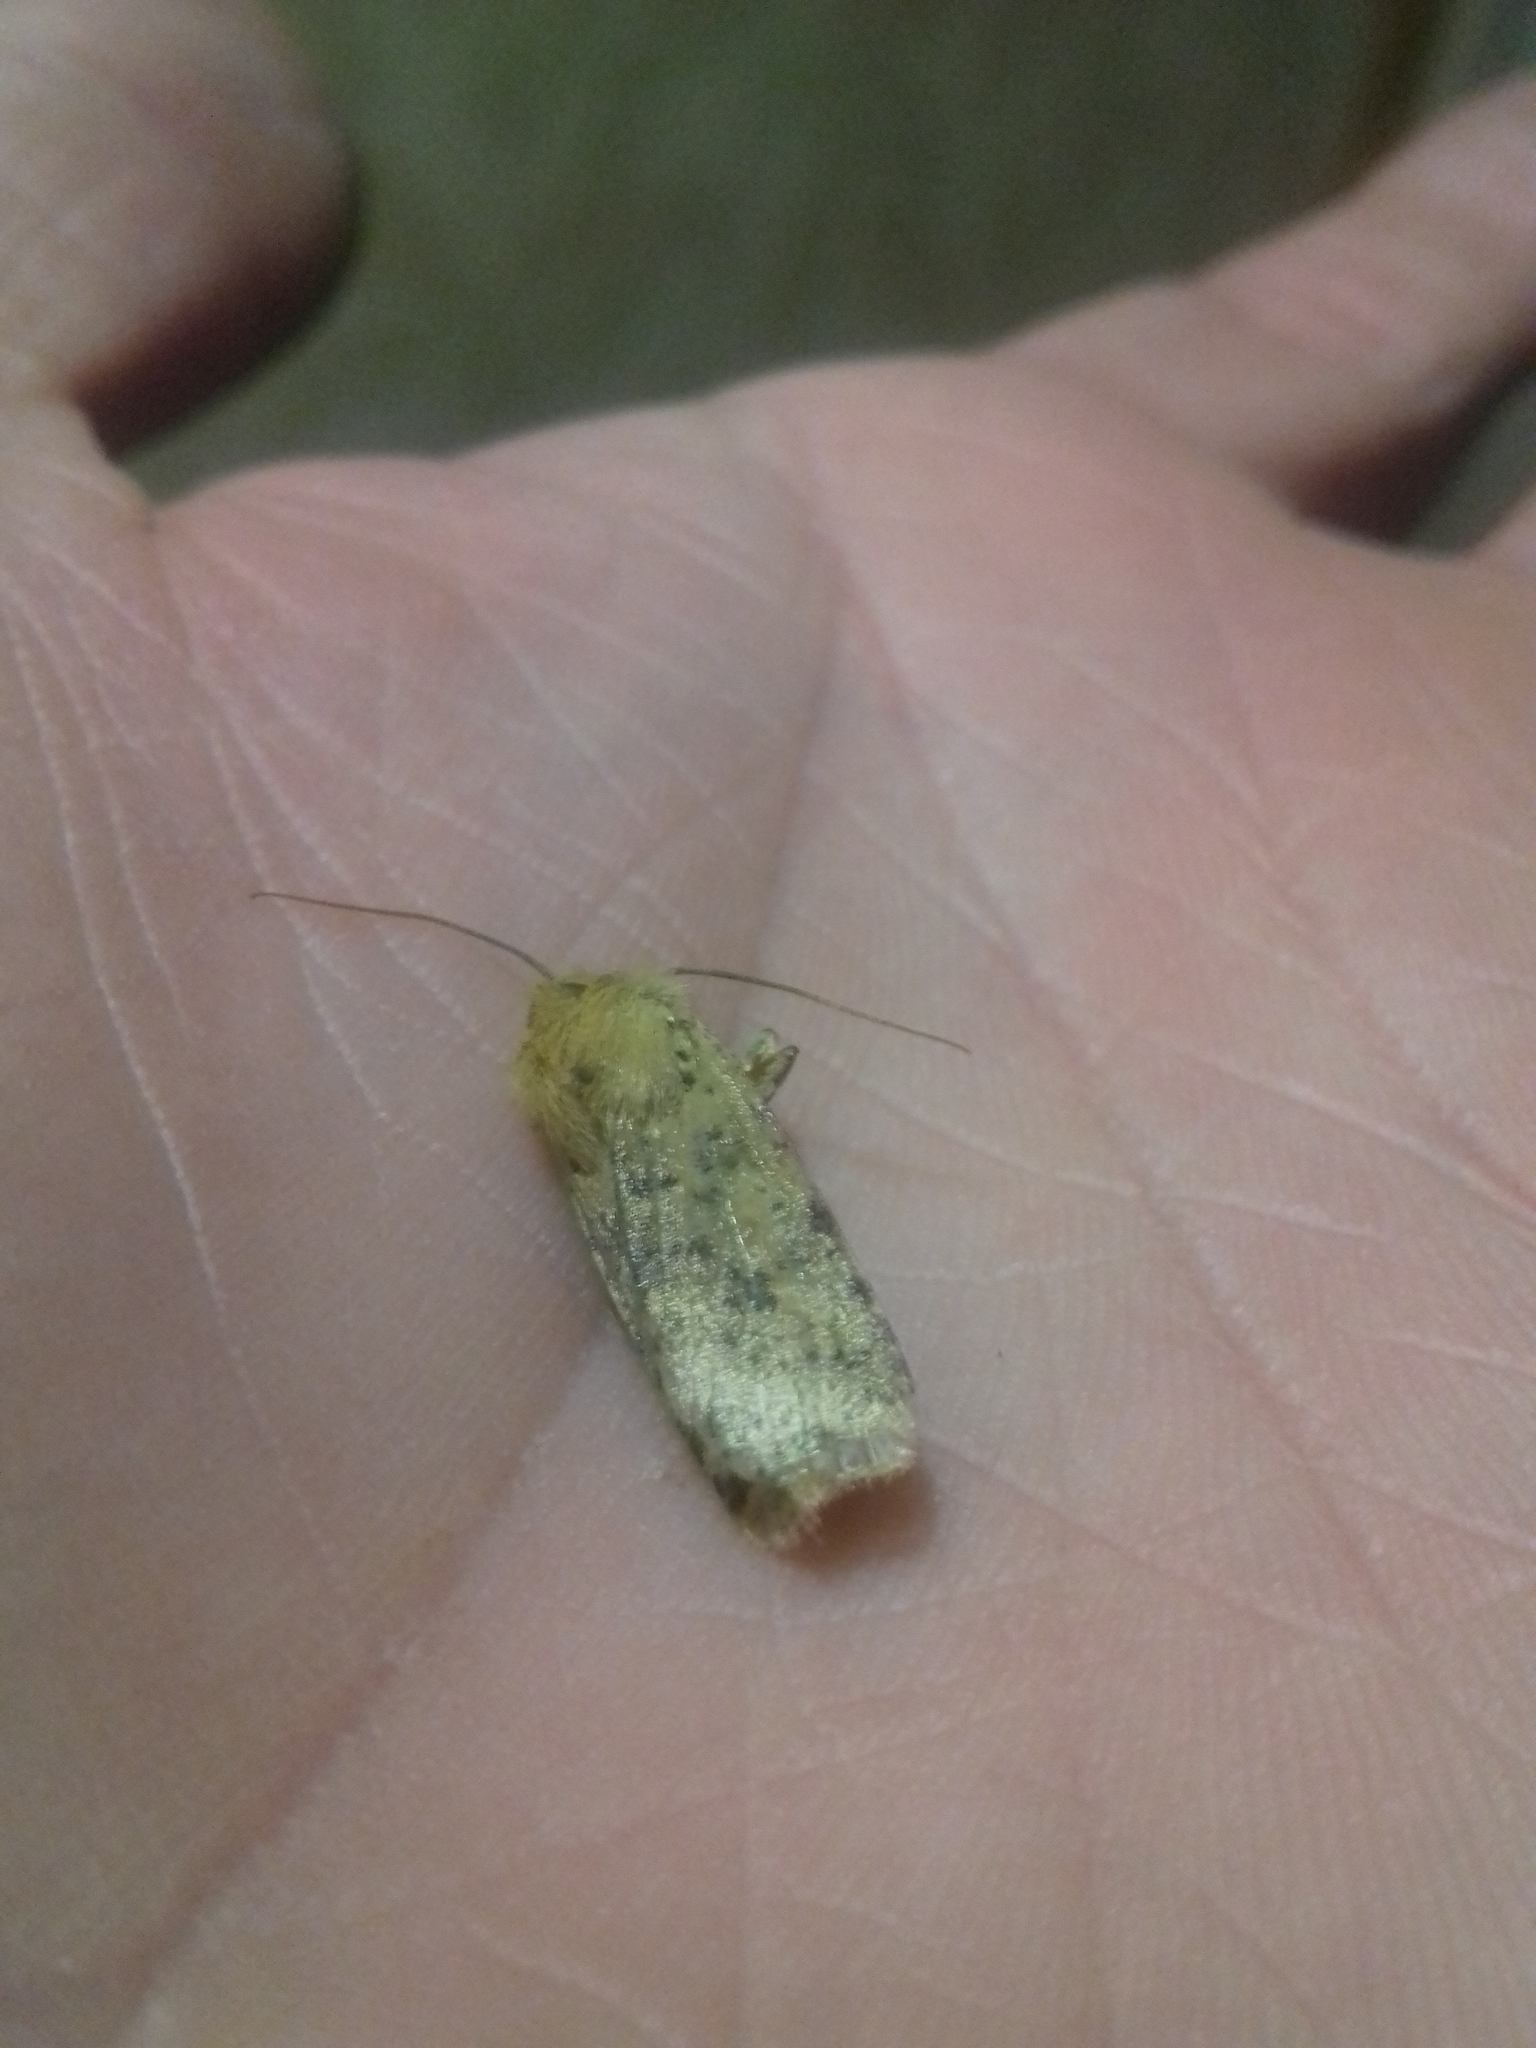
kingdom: Animalia
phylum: Arthropoda
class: Insecta
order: Lepidoptera
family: Noctuidae
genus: Conistra
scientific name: Conistra rubiginea
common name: Dotted chestnut
